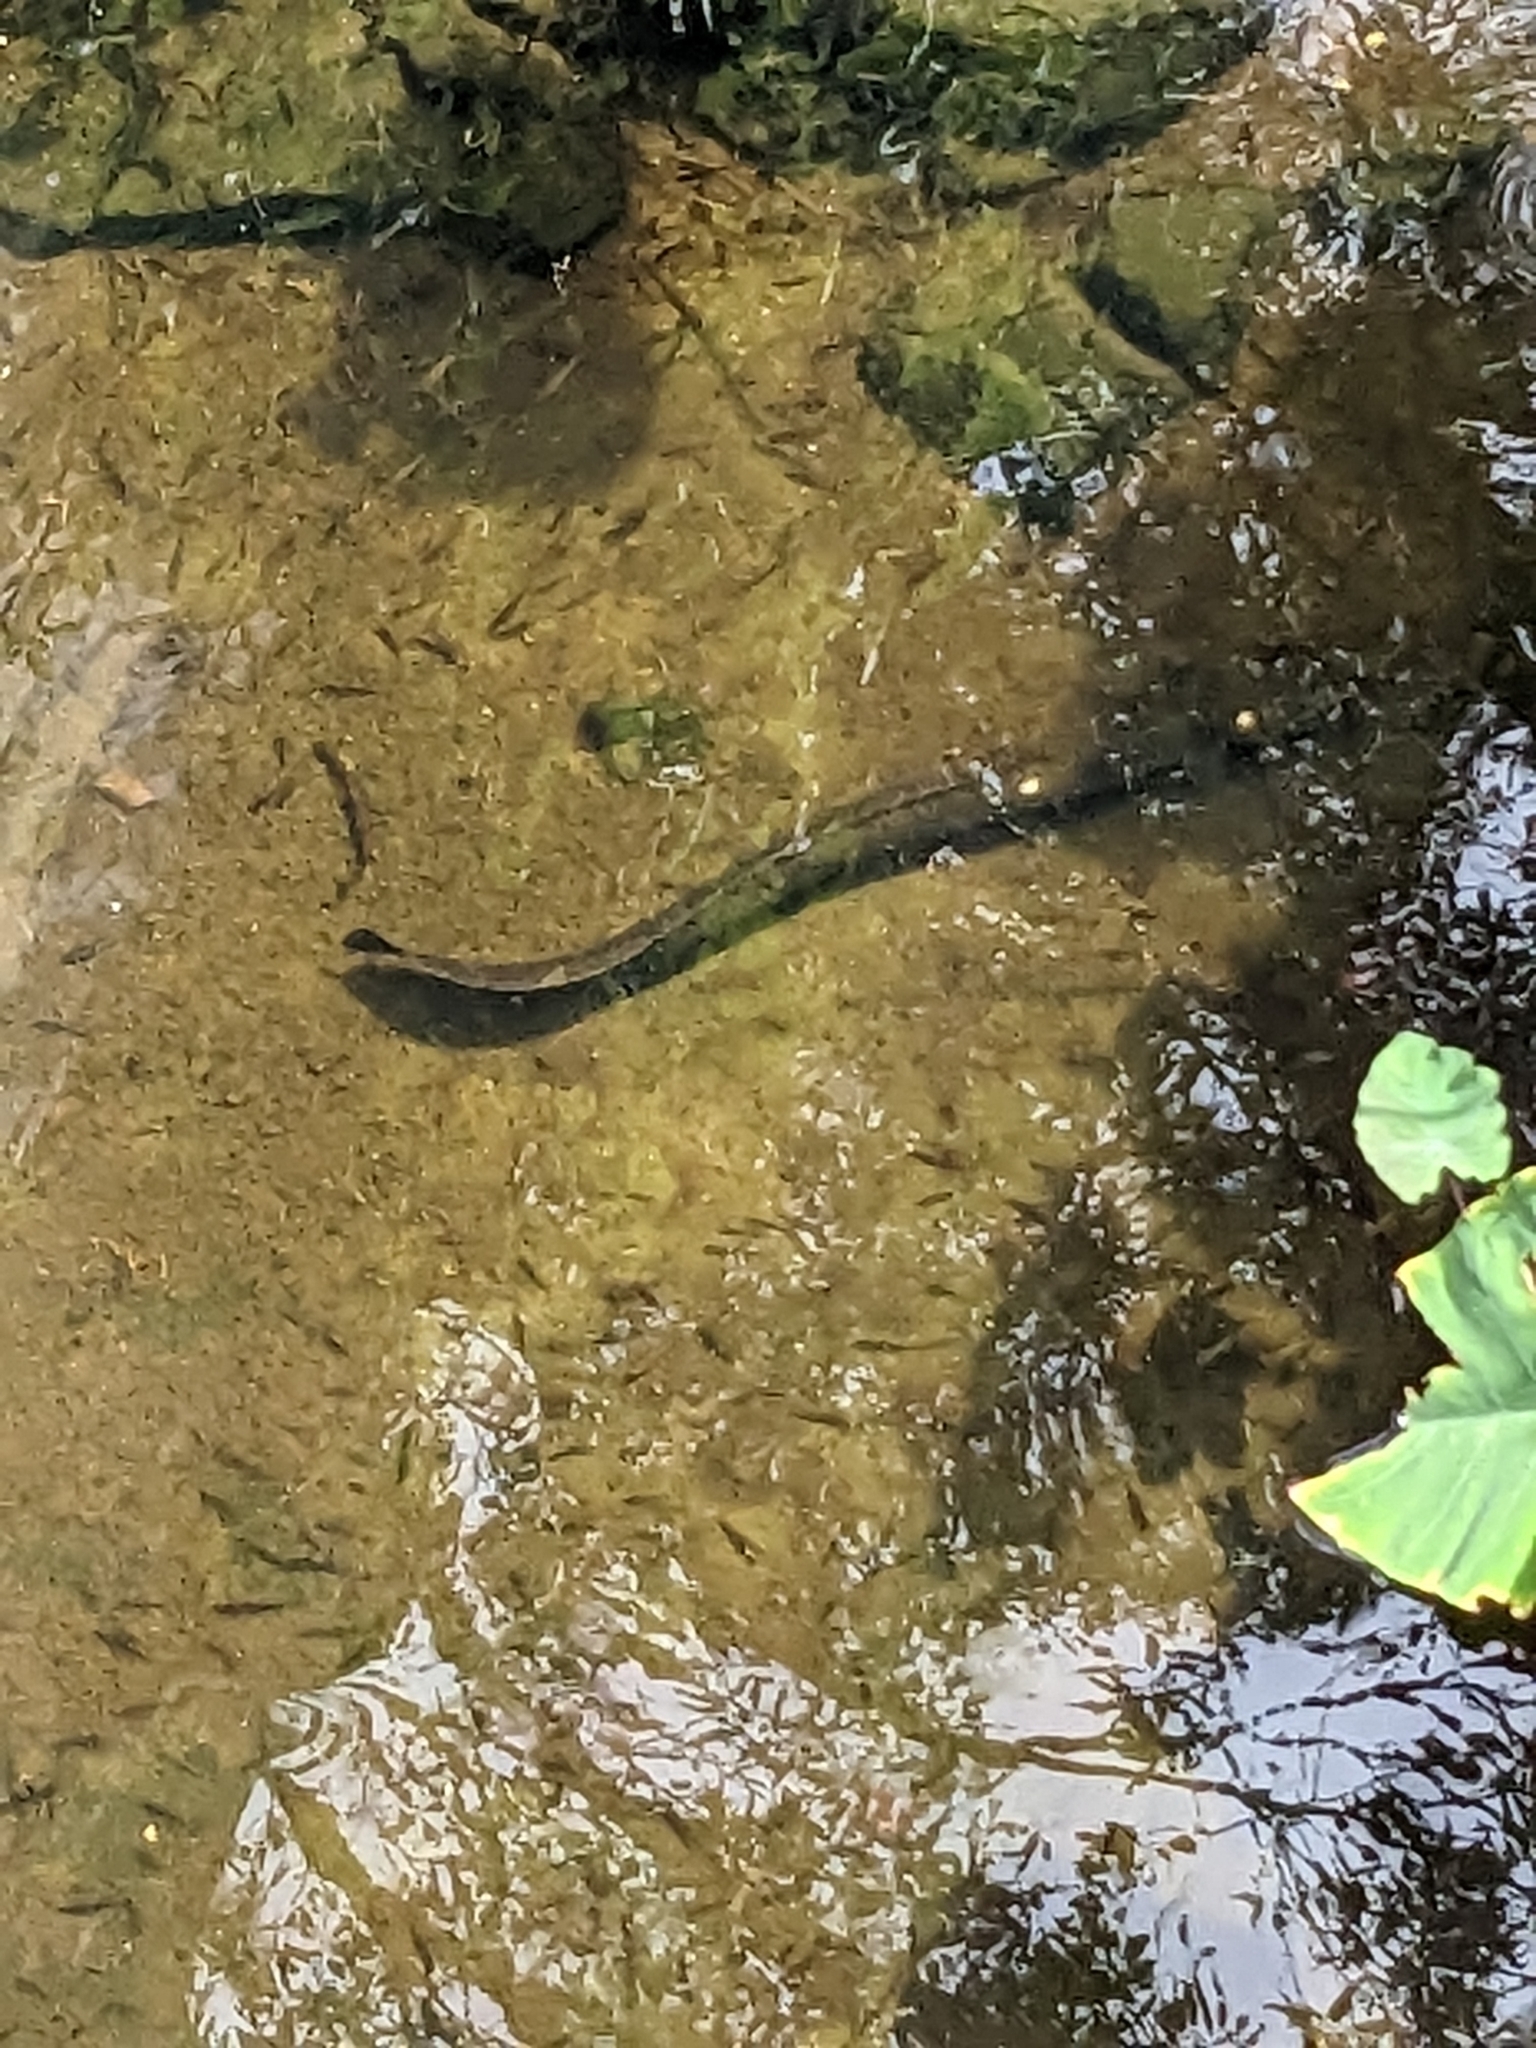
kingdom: Animalia
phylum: Chordata
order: Anguilliformes
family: Anguillidae
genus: Anguilla
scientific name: Anguilla reinhardtii
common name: Longfin eel
